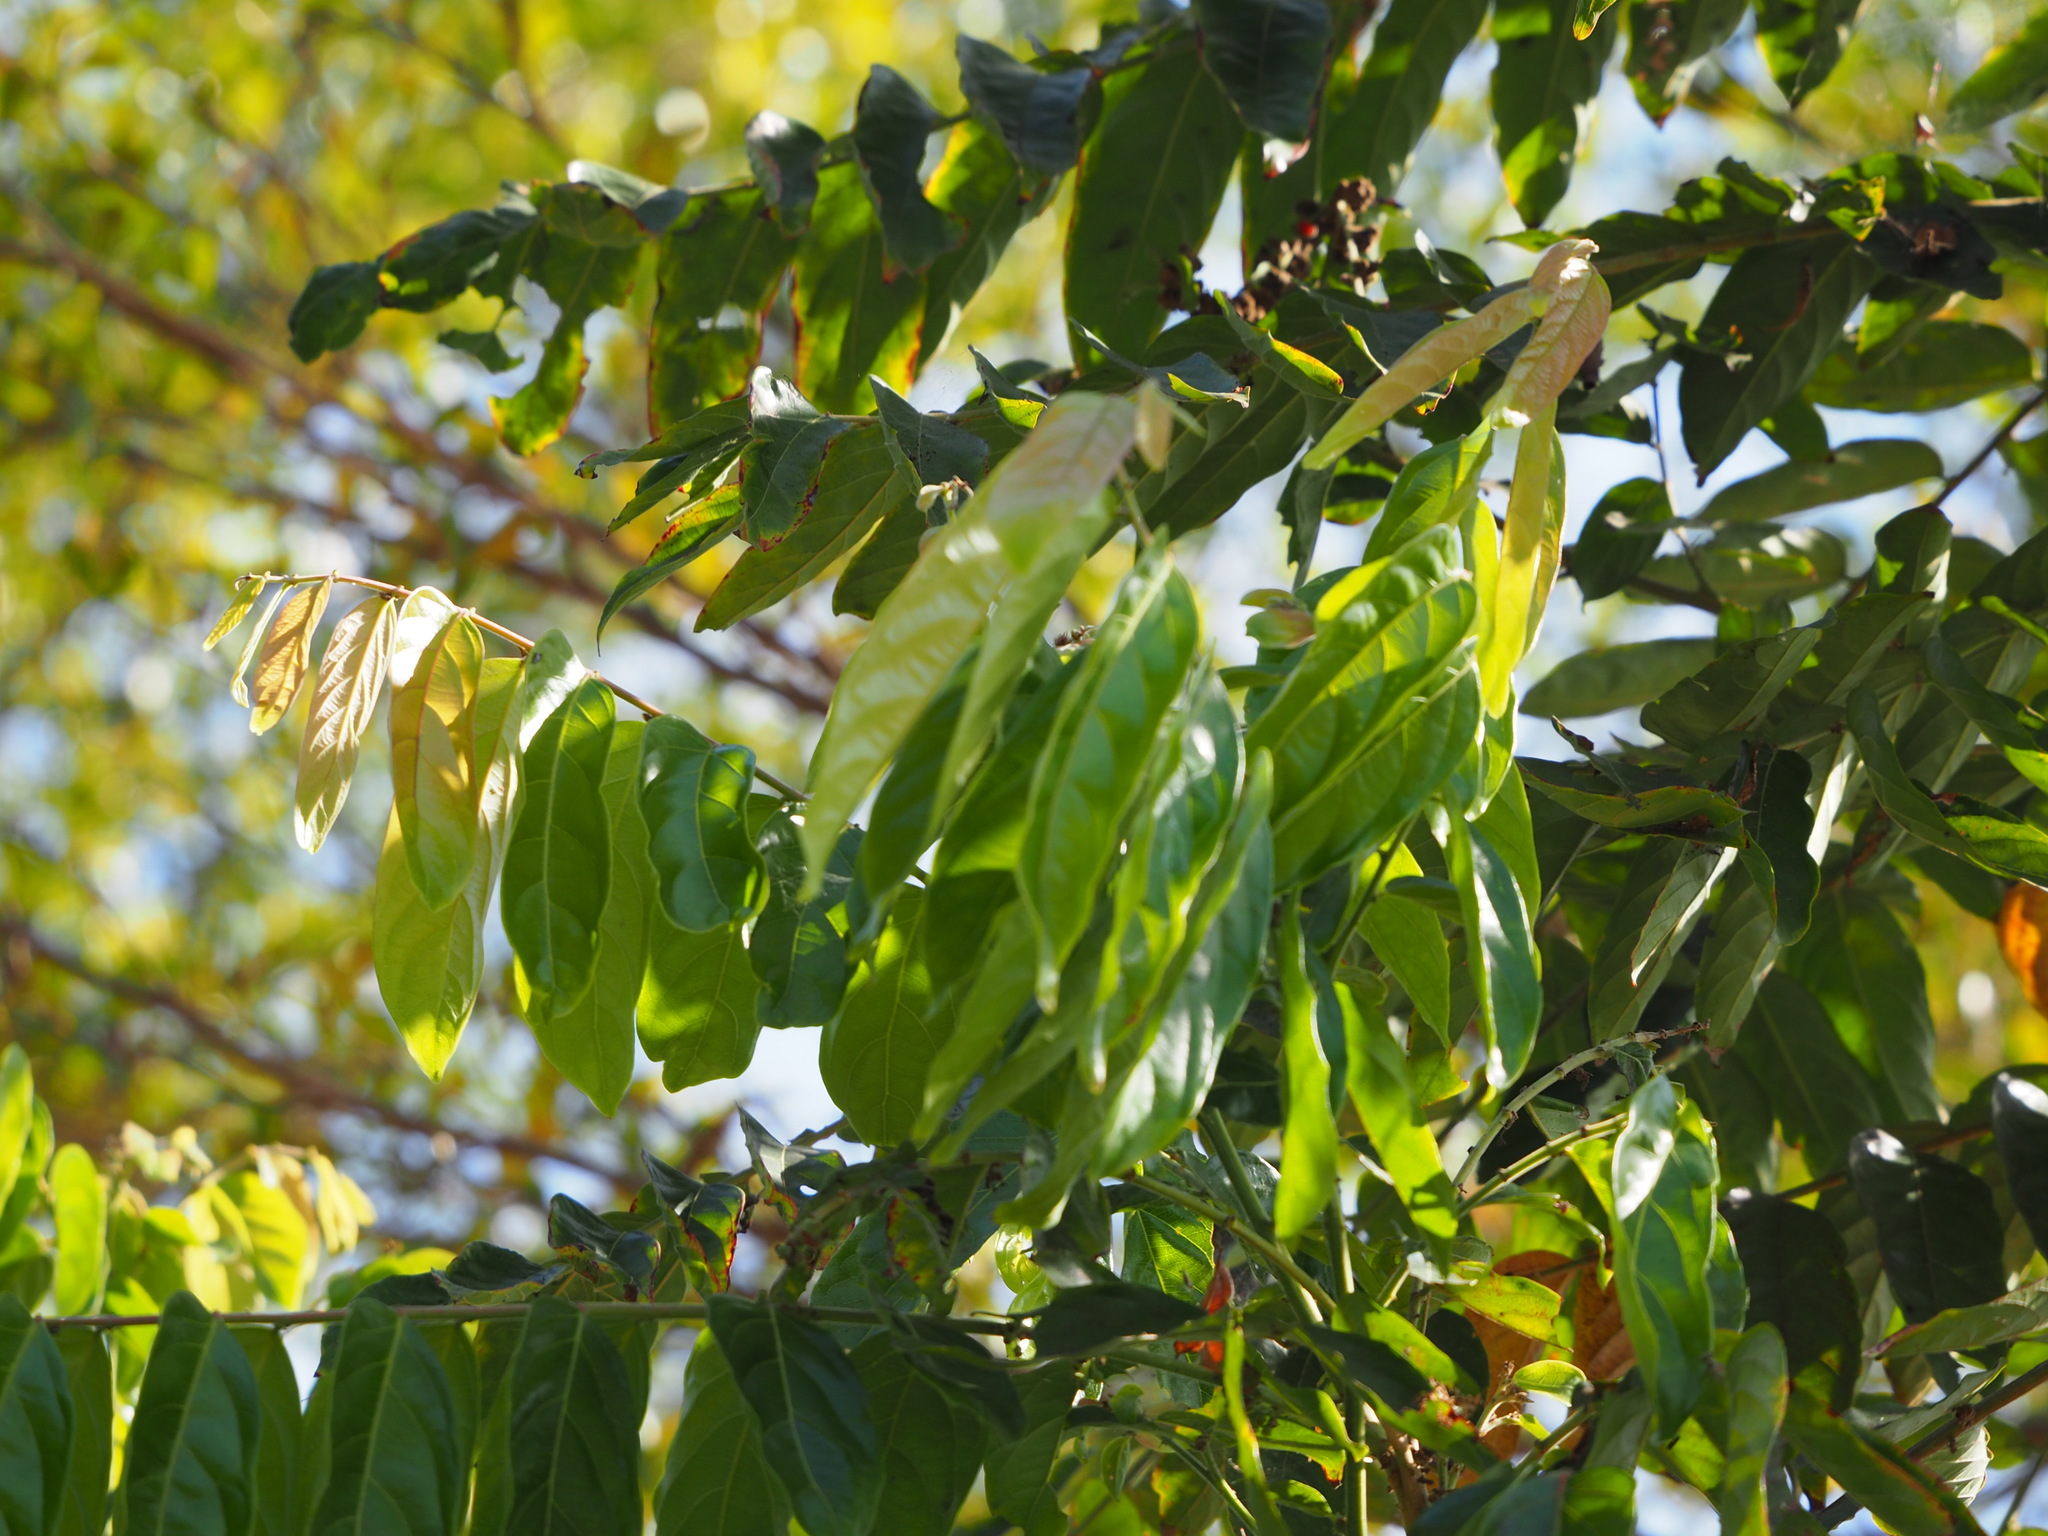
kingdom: Plantae
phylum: Tracheophyta
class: Magnoliopsida
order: Malpighiales
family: Phyllanthaceae
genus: Glochidion
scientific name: Glochidion philippicum
